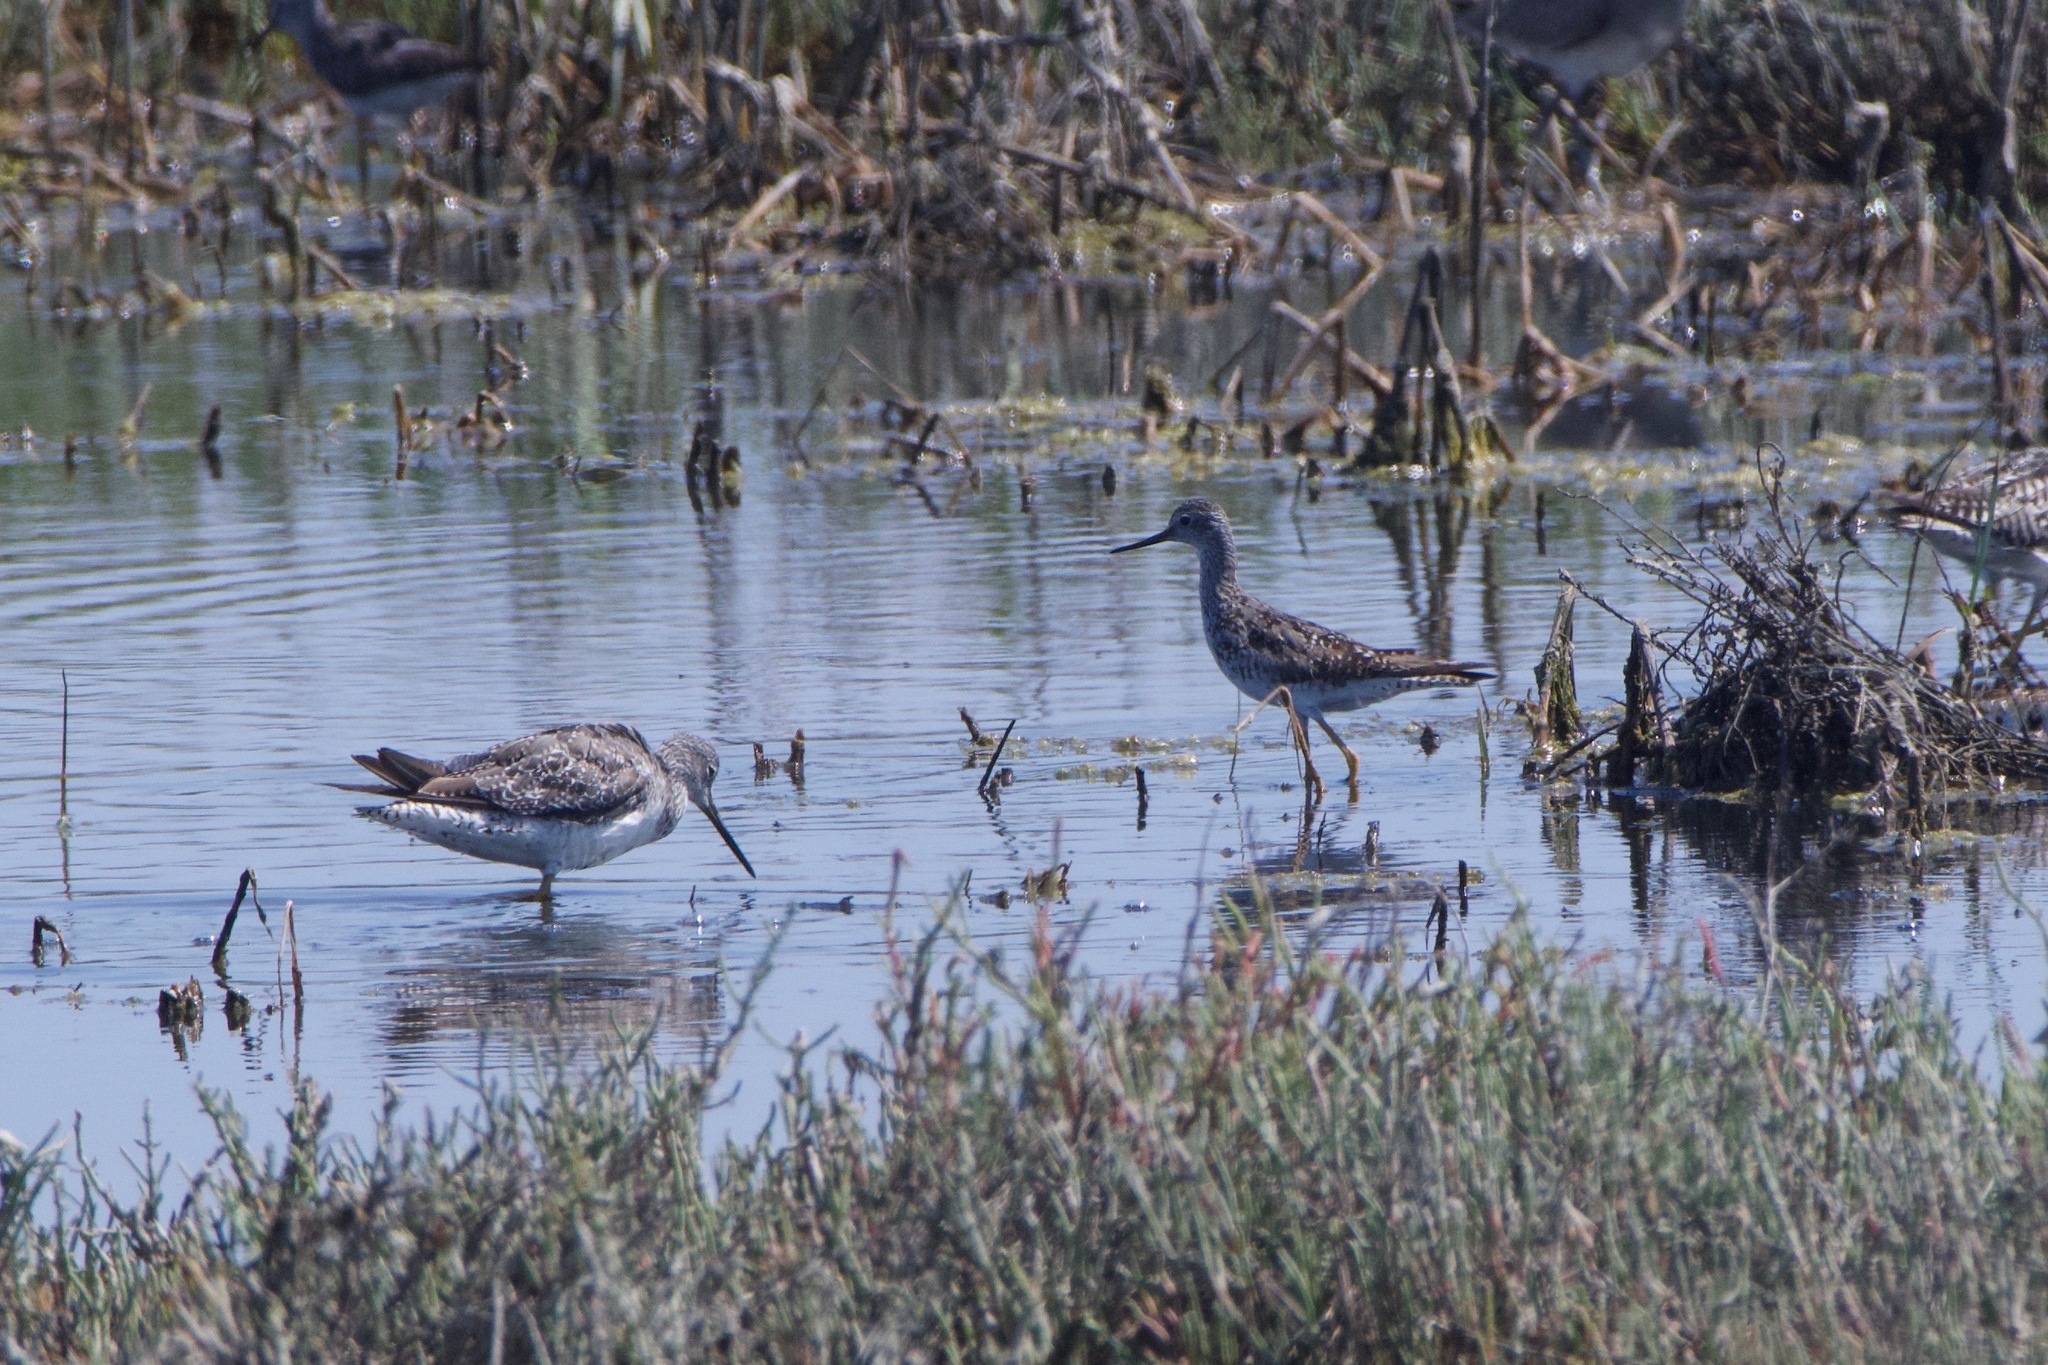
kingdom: Animalia
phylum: Chordata
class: Aves
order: Charadriiformes
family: Scolopacidae
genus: Tringa
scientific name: Tringa melanoleuca
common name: Greater yellowlegs
